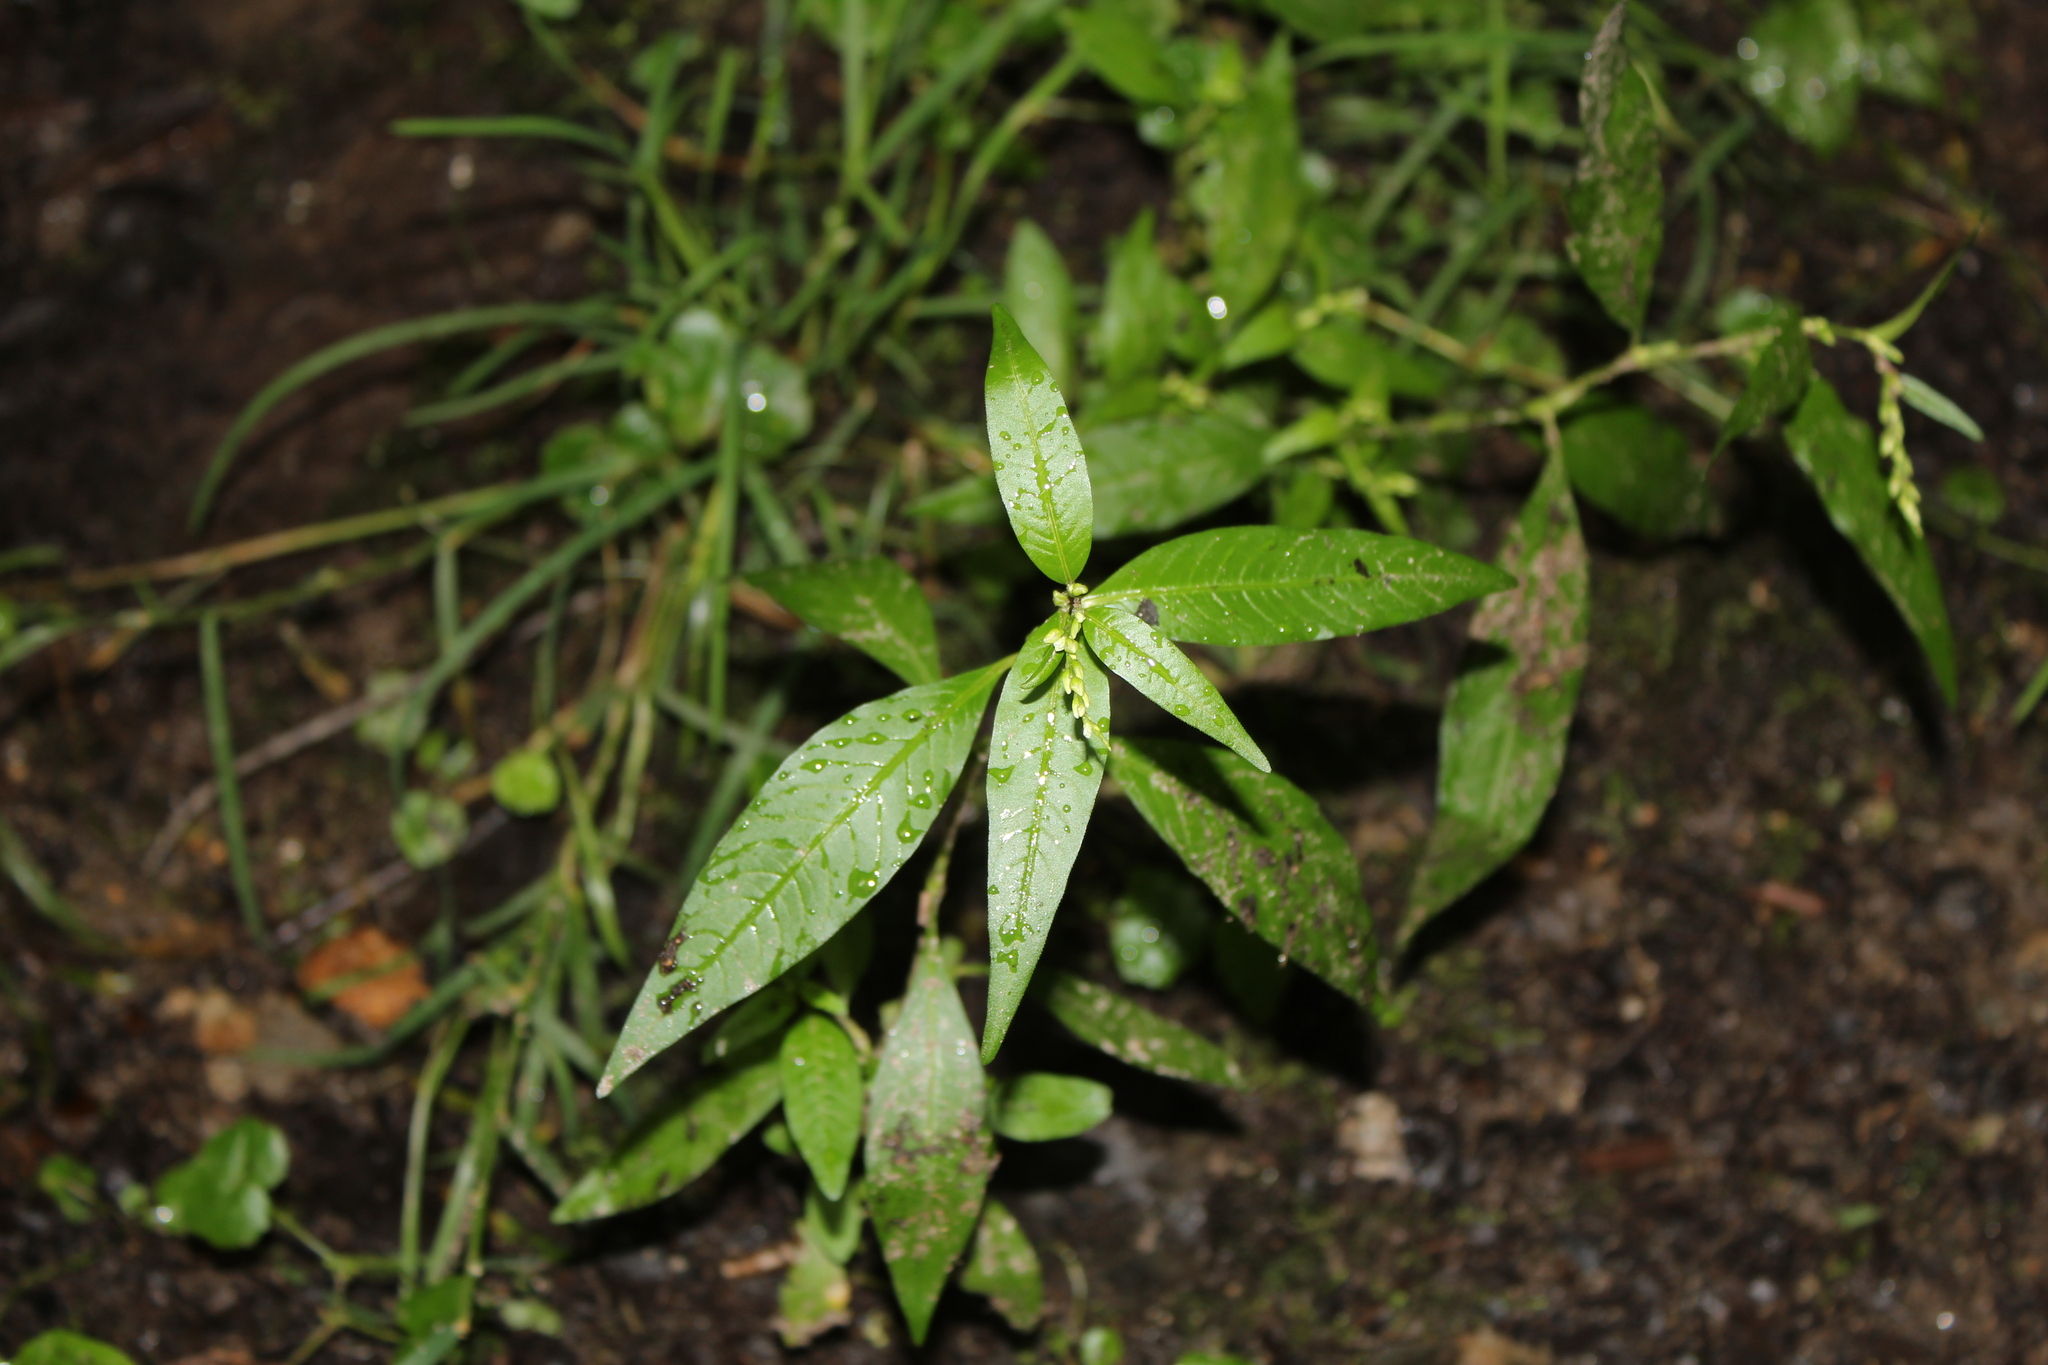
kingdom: Plantae
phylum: Tracheophyta
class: Magnoliopsida
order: Caryophyllales
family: Polygonaceae
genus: Persicaria
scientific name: Persicaria hydropiper
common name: Water-pepper
